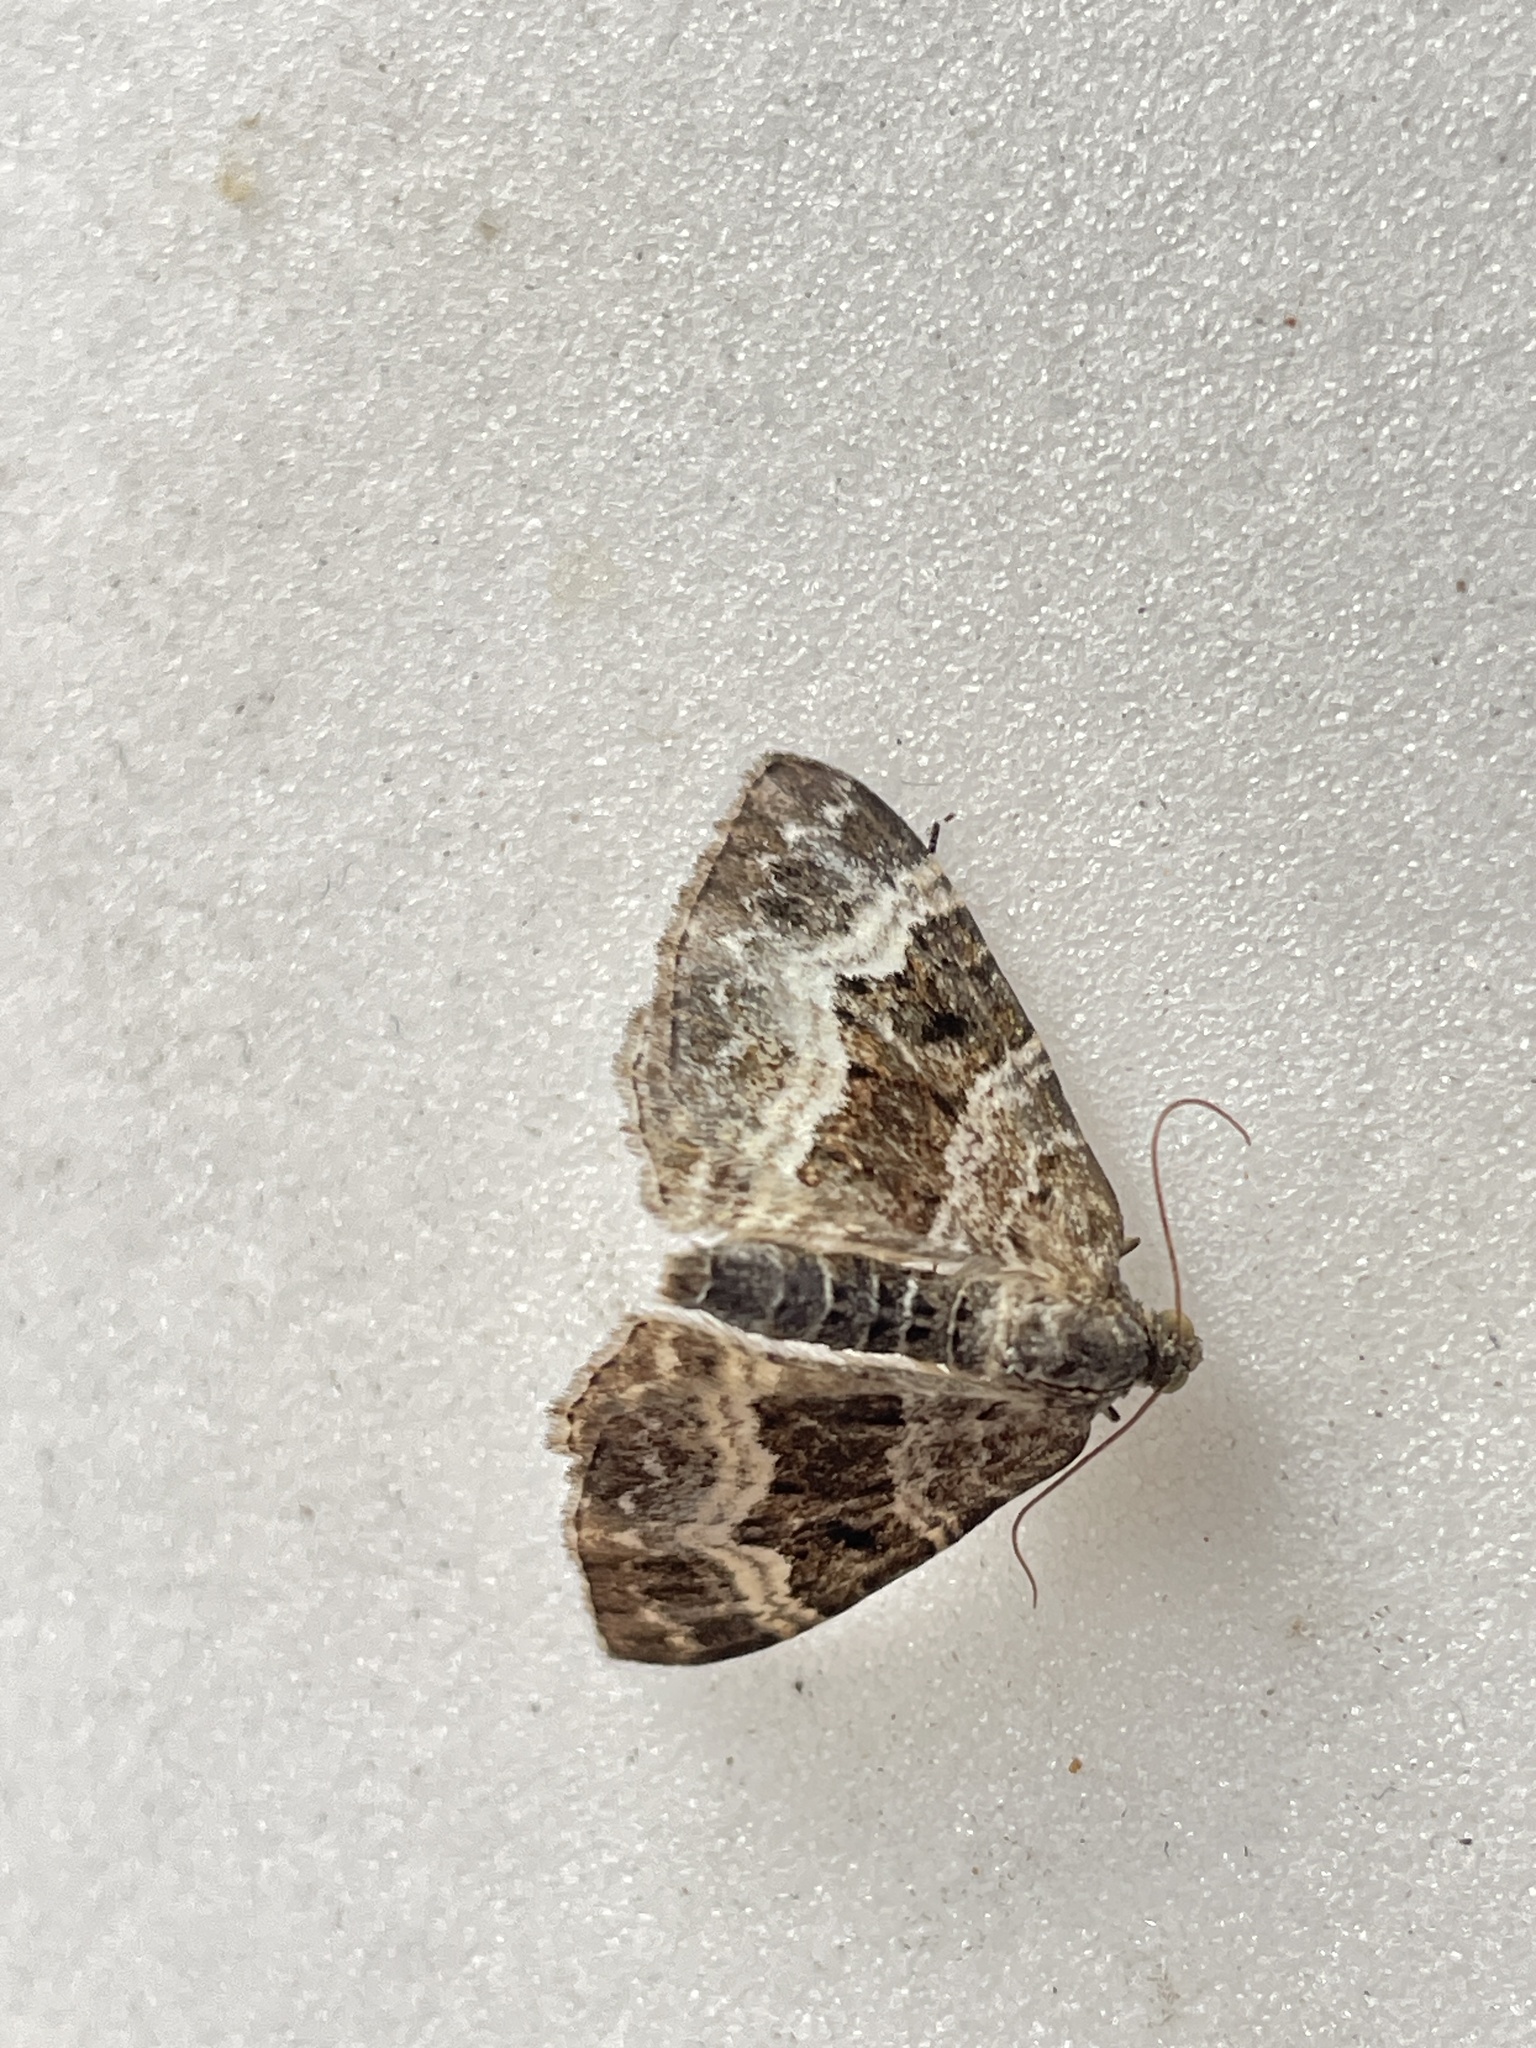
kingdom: Animalia
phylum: Arthropoda
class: Insecta
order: Lepidoptera
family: Geometridae
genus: Epirrhoe
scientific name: Epirrhoe alternata
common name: Common carpet
